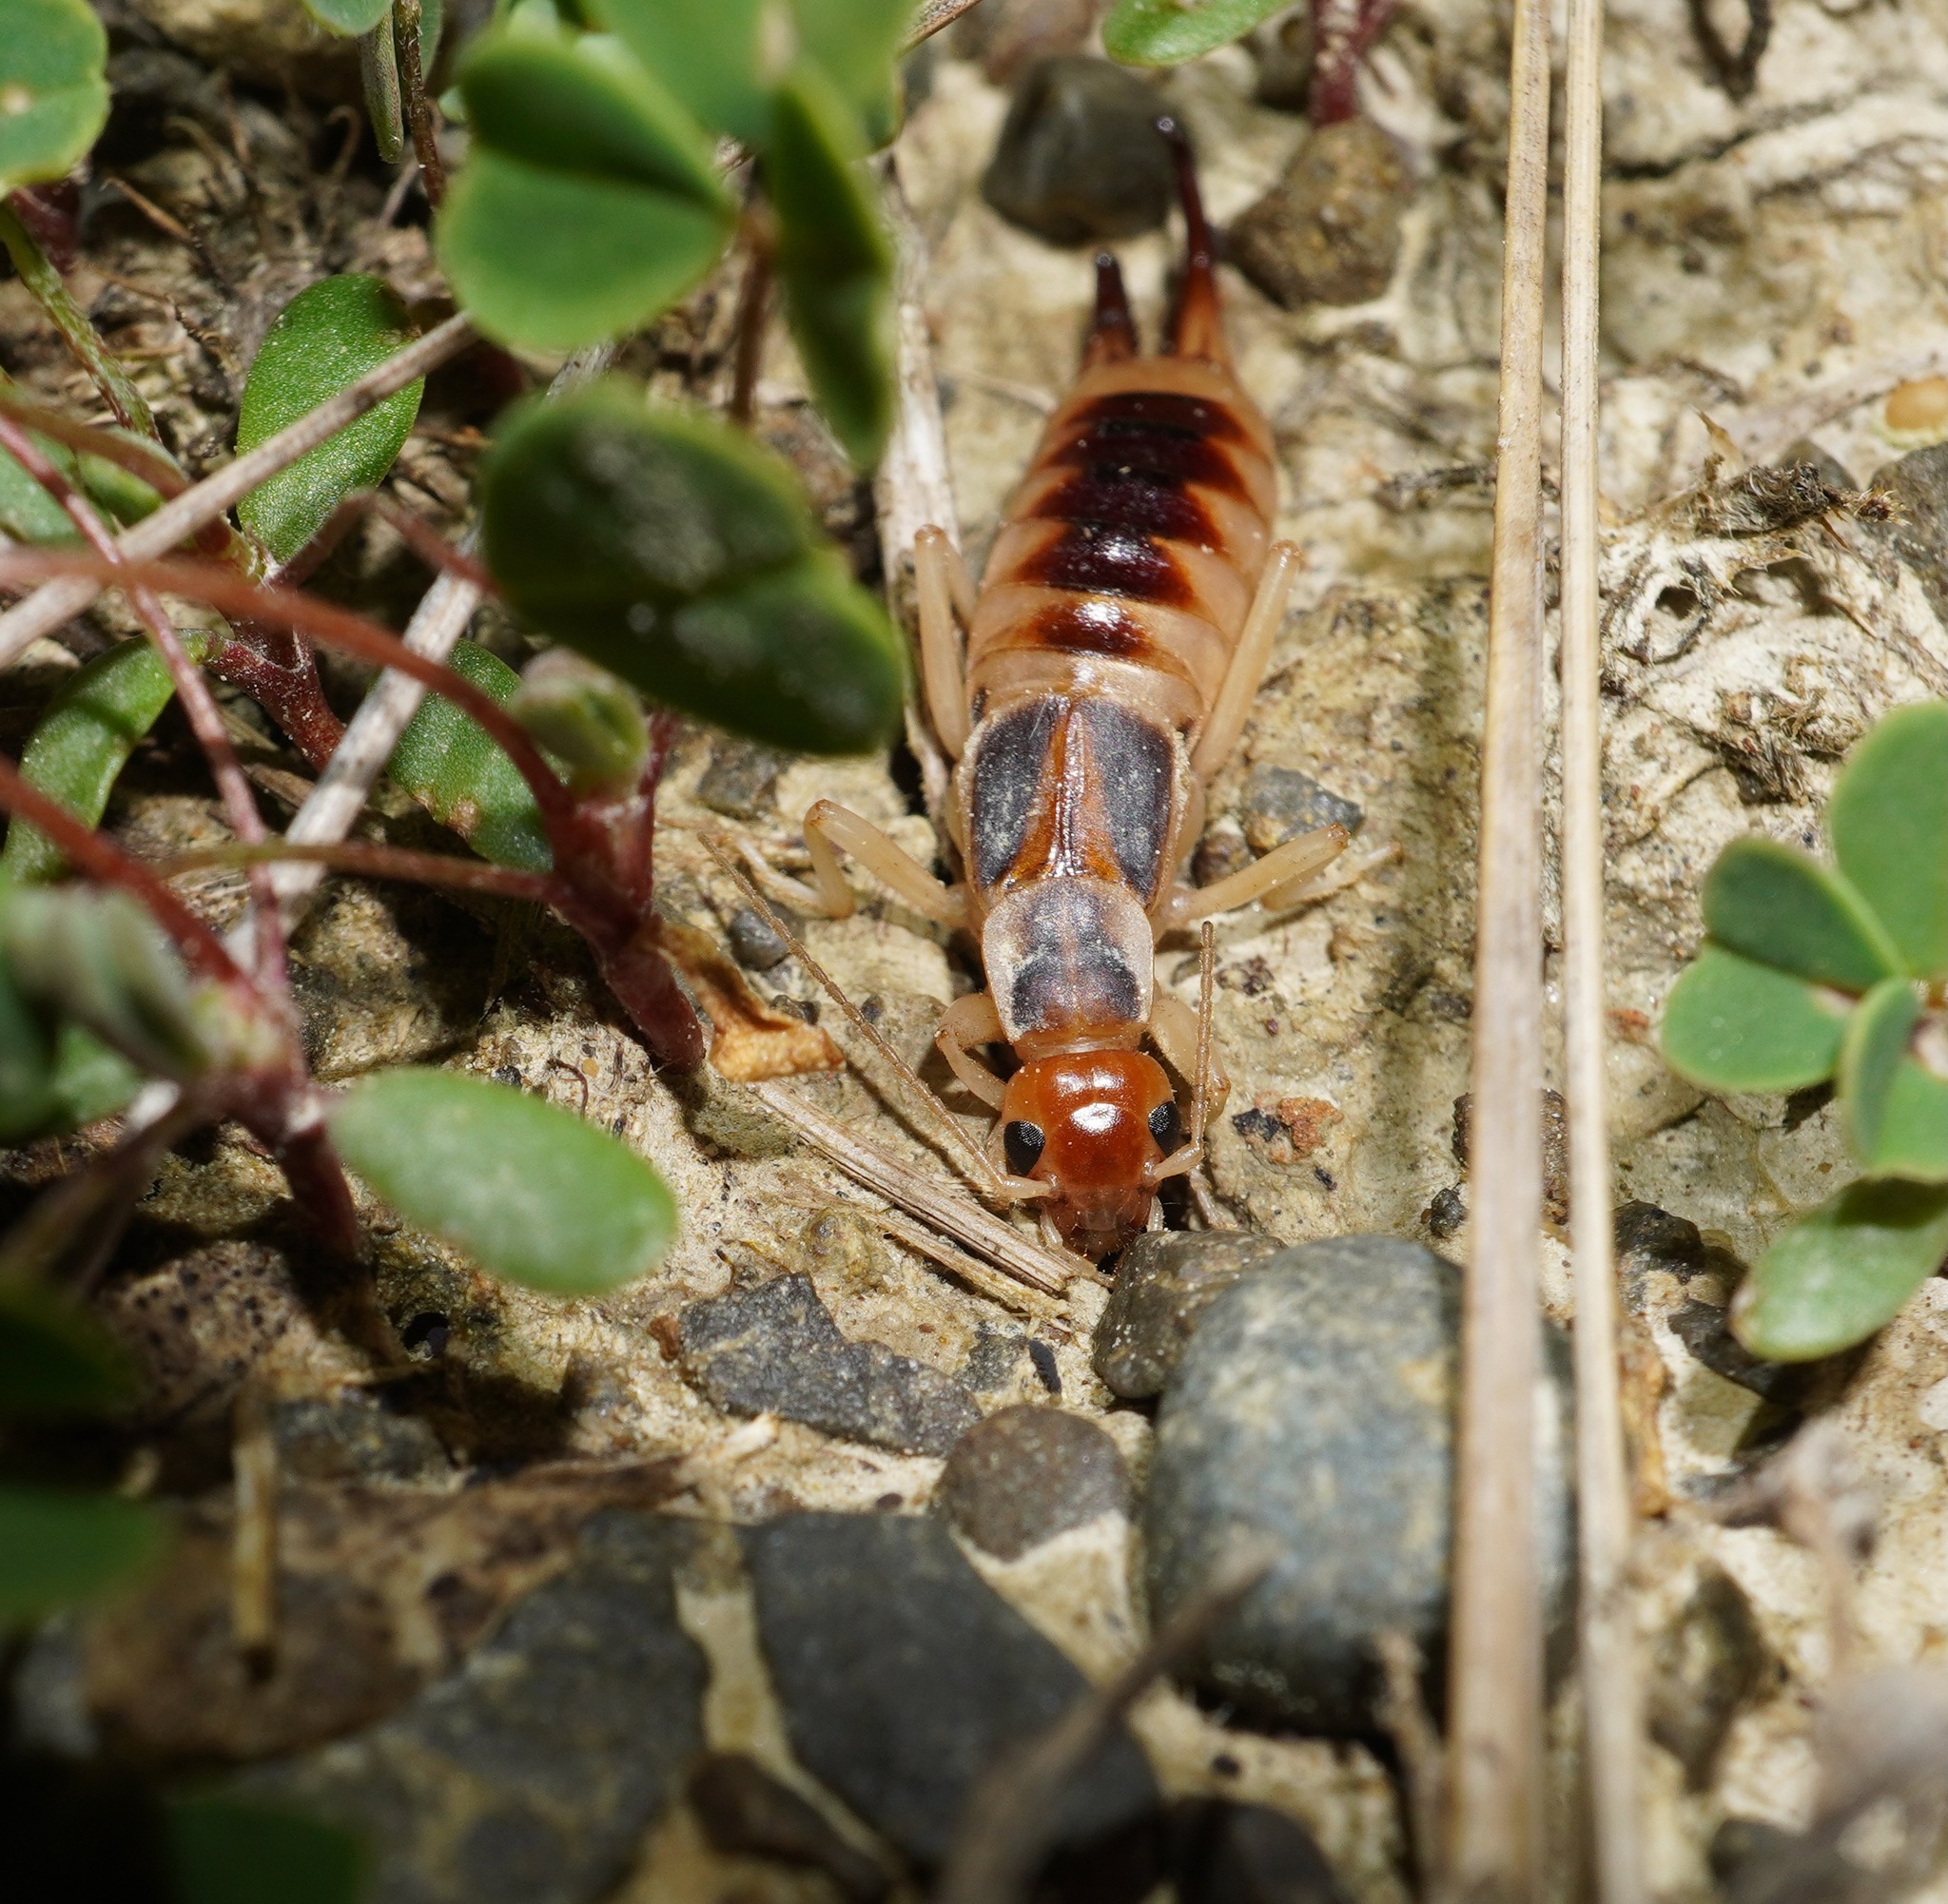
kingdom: Animalia
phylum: Arthropoda
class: Insecta
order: Dermaptera
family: Labiduridae
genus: Labidura
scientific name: Labidura riparia
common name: Striped earwig
